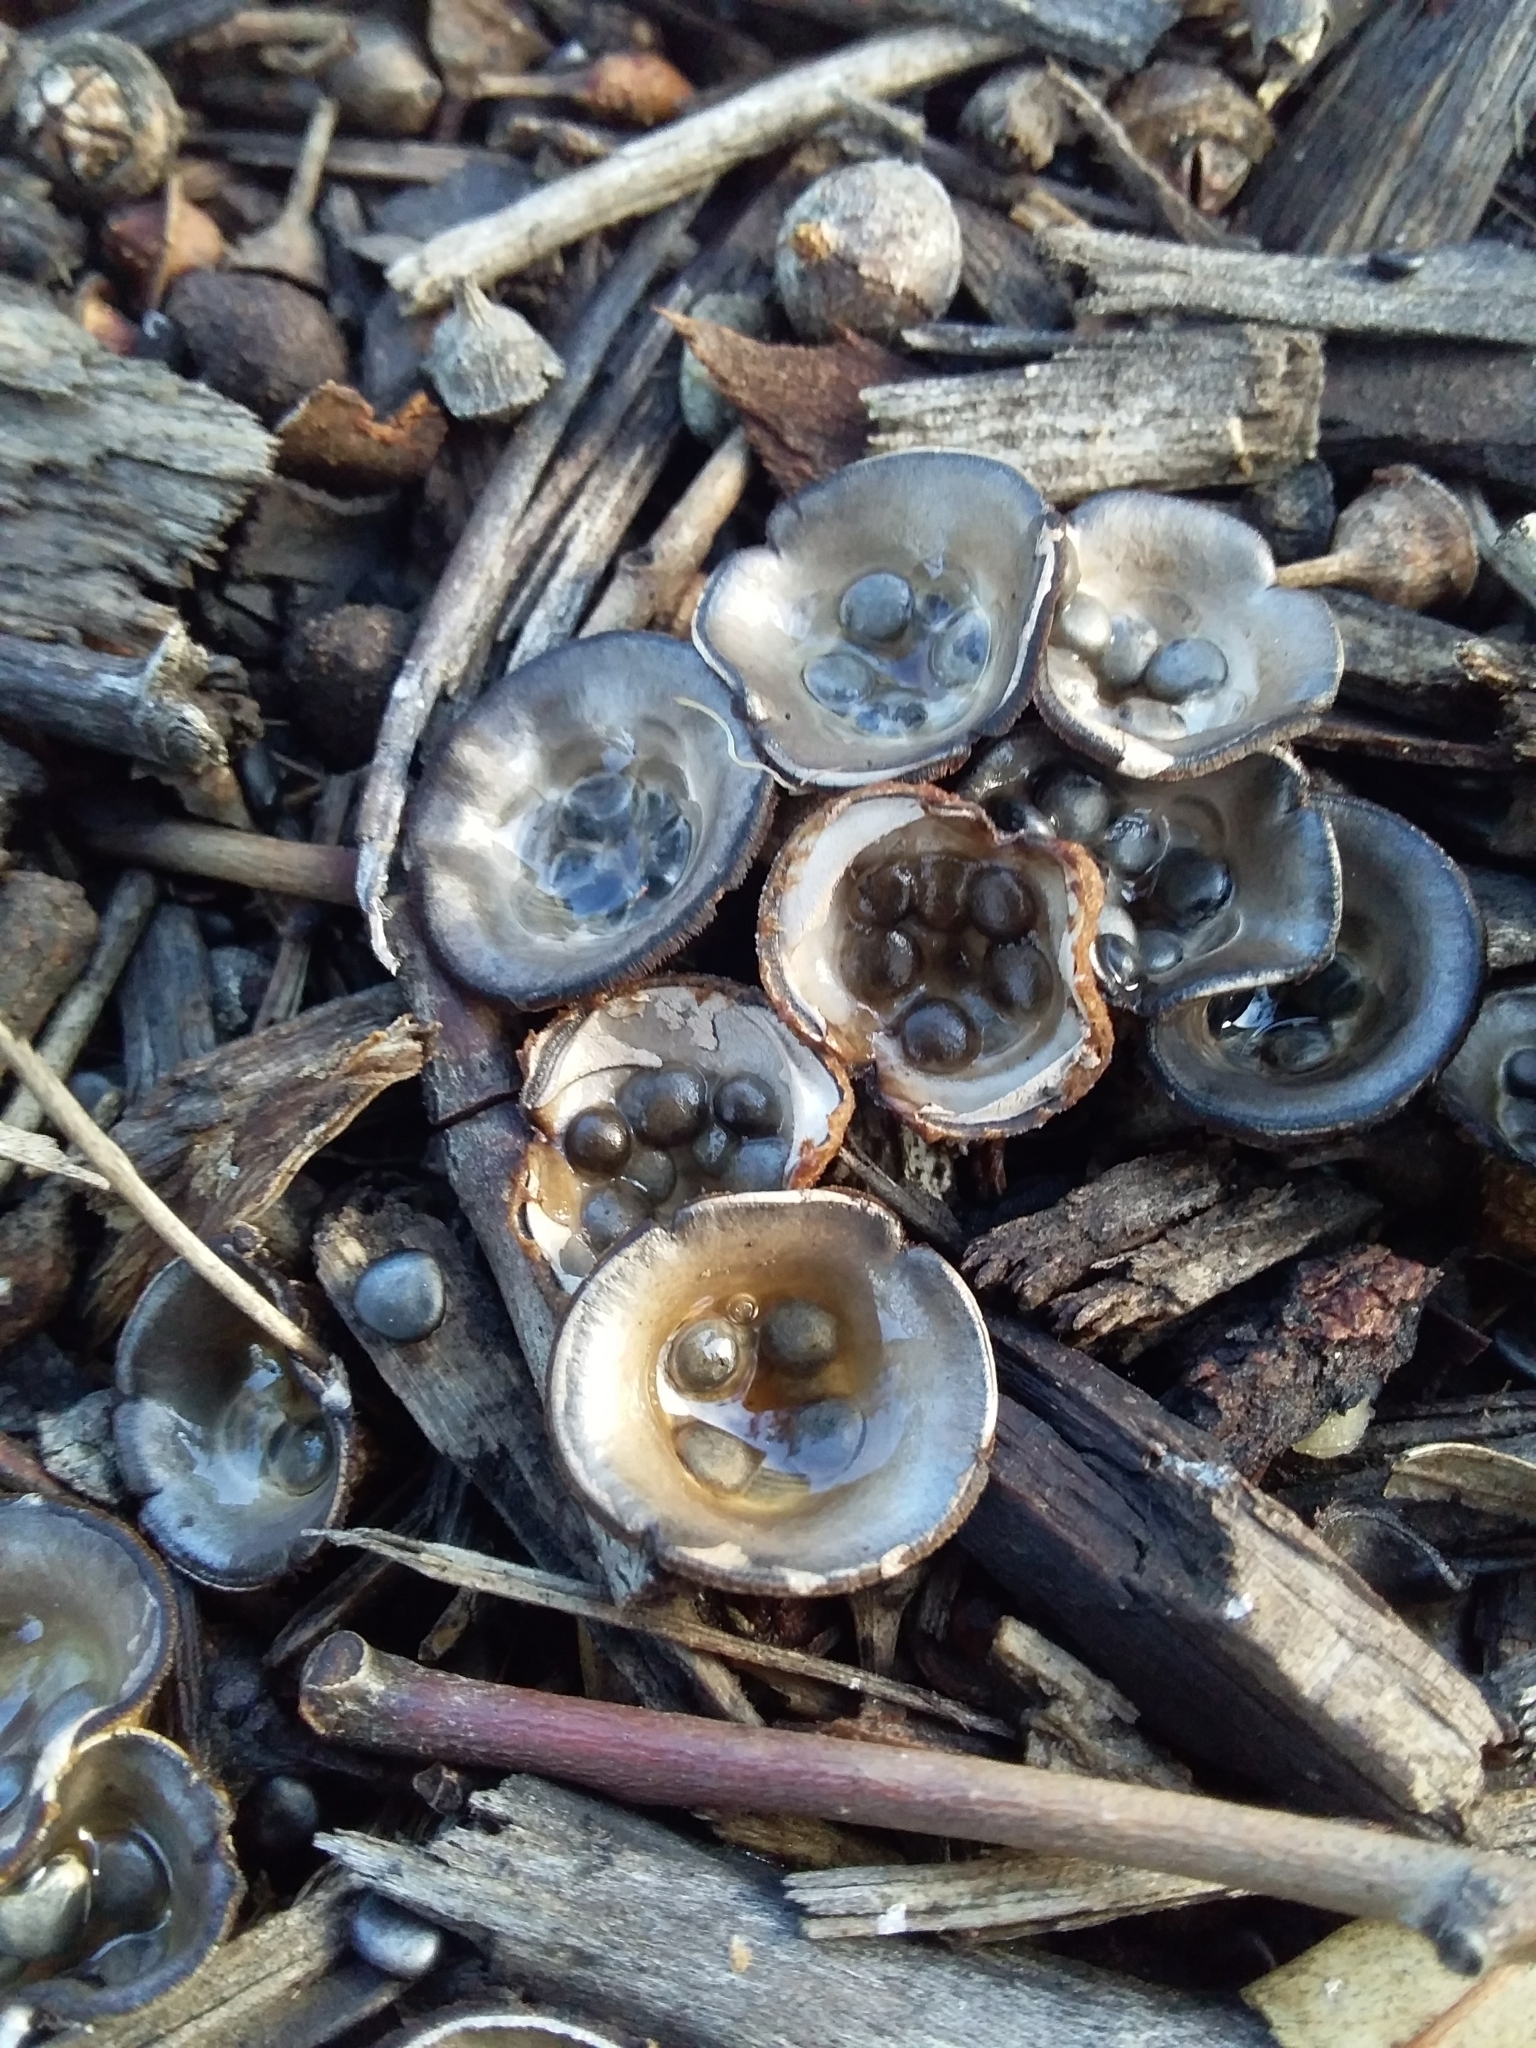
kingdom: Fungi
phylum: Basidiomycota
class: Agaricomycetes
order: Agaricales
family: Agaricaceae
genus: Cyathus
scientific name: Cyathus stercoreus
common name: Dung bird's nest
